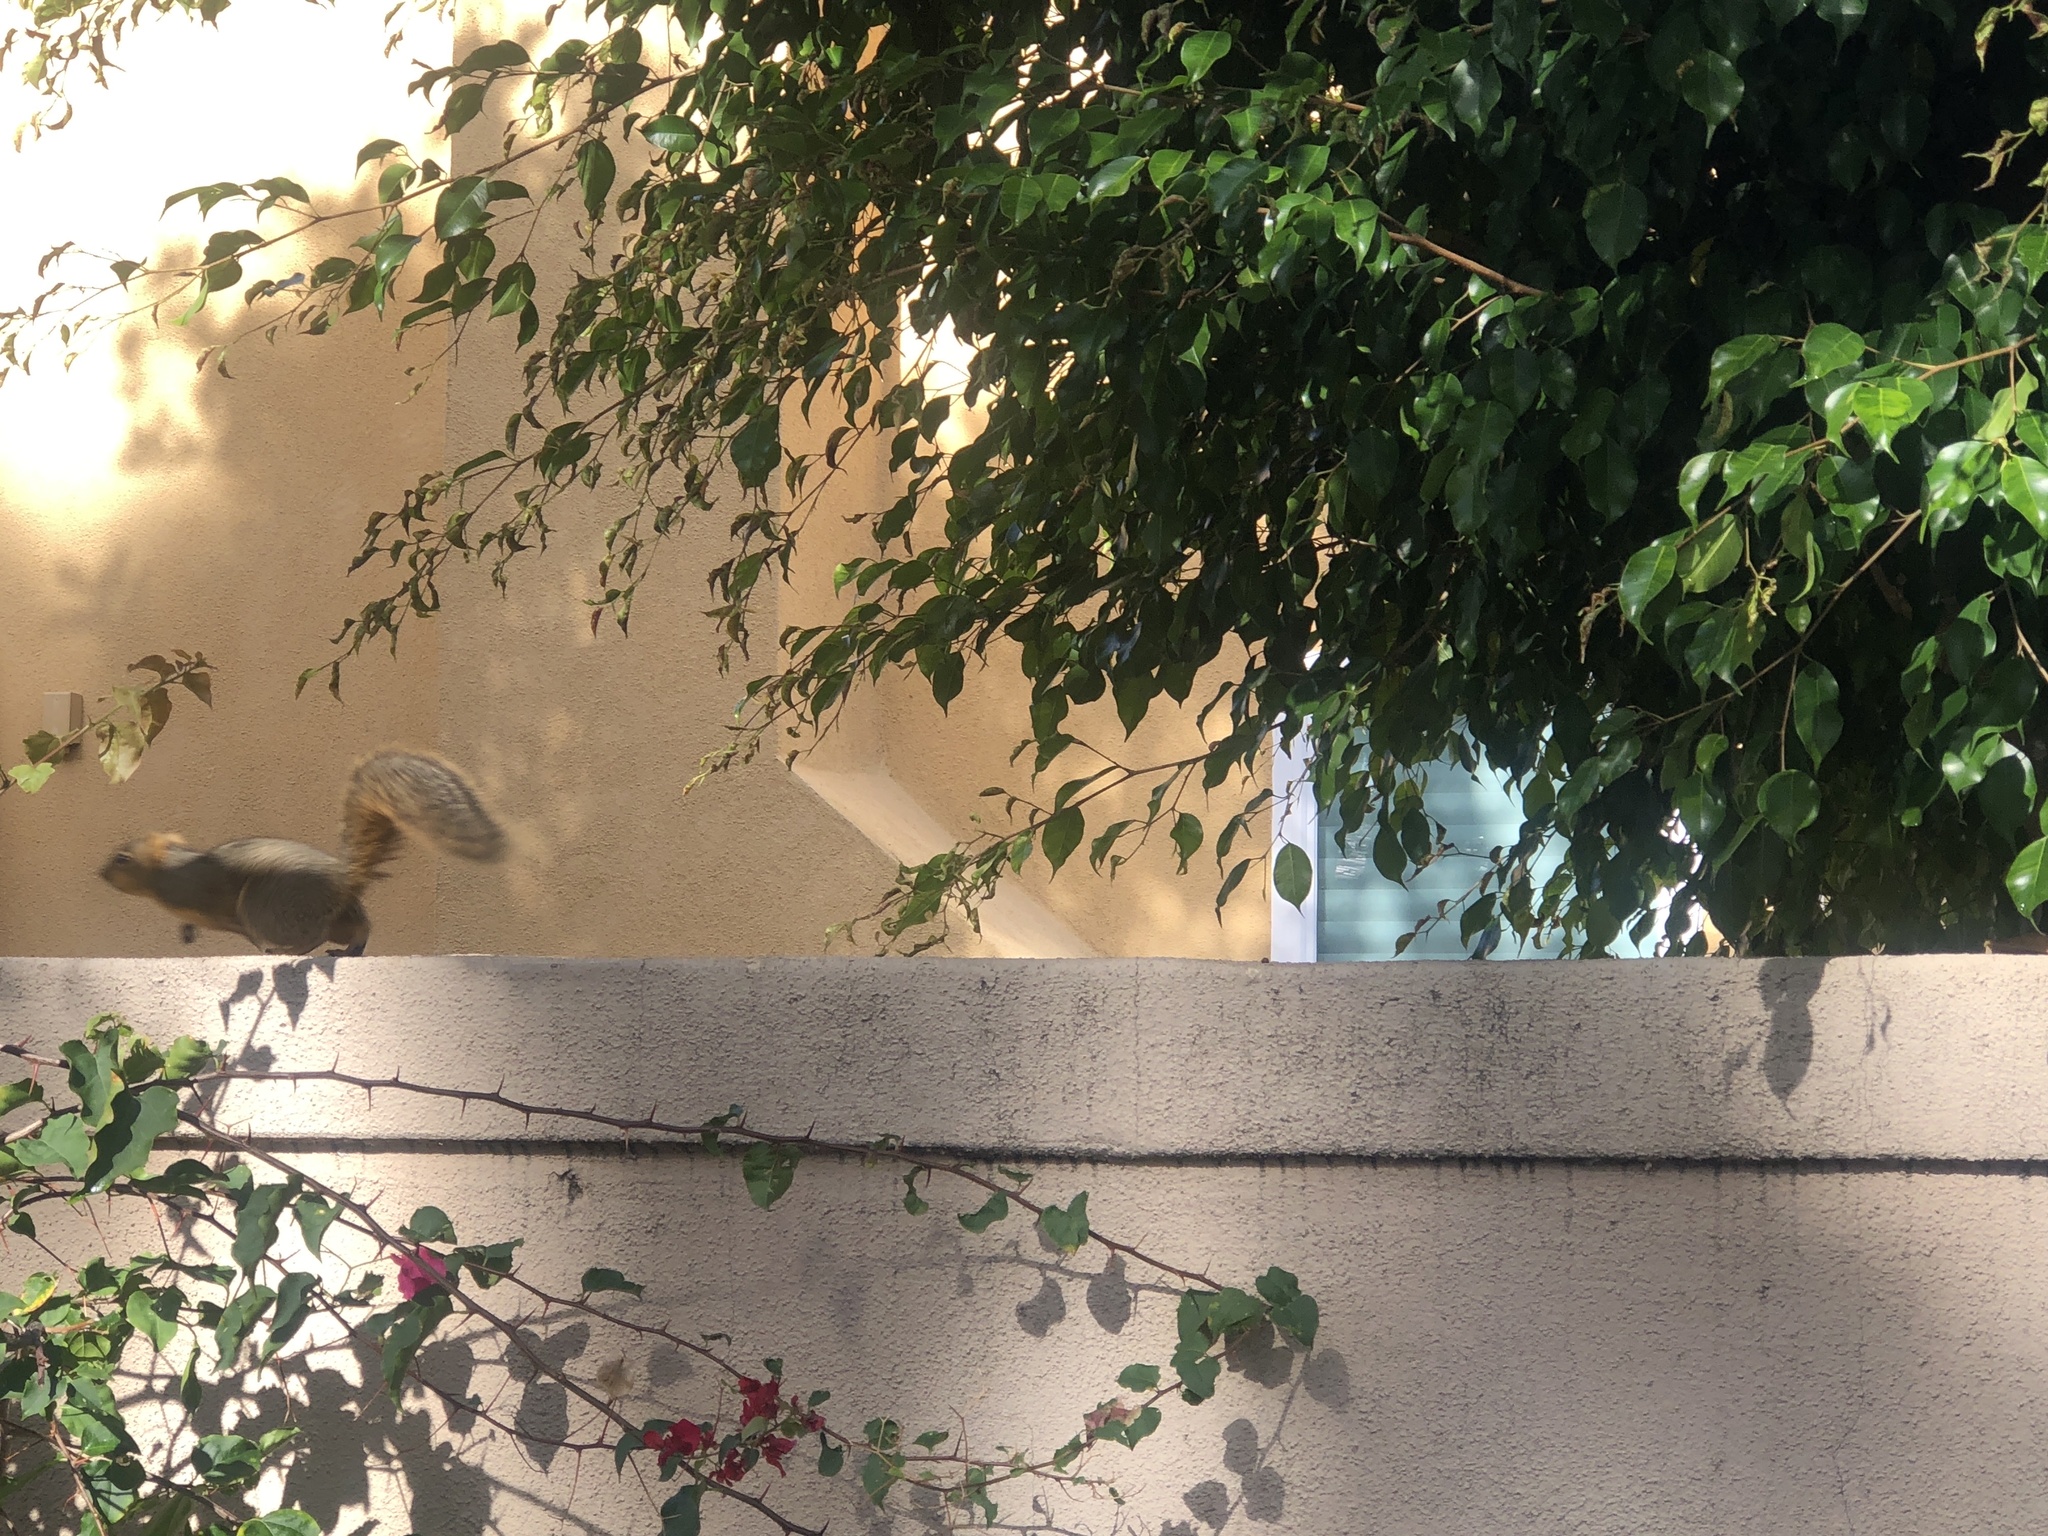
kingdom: Animalia
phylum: Chordata
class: Mammalia
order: Rodentia
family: Sciuridae
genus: Sciurus
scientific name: Sciurus niger
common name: Fox squirrel
